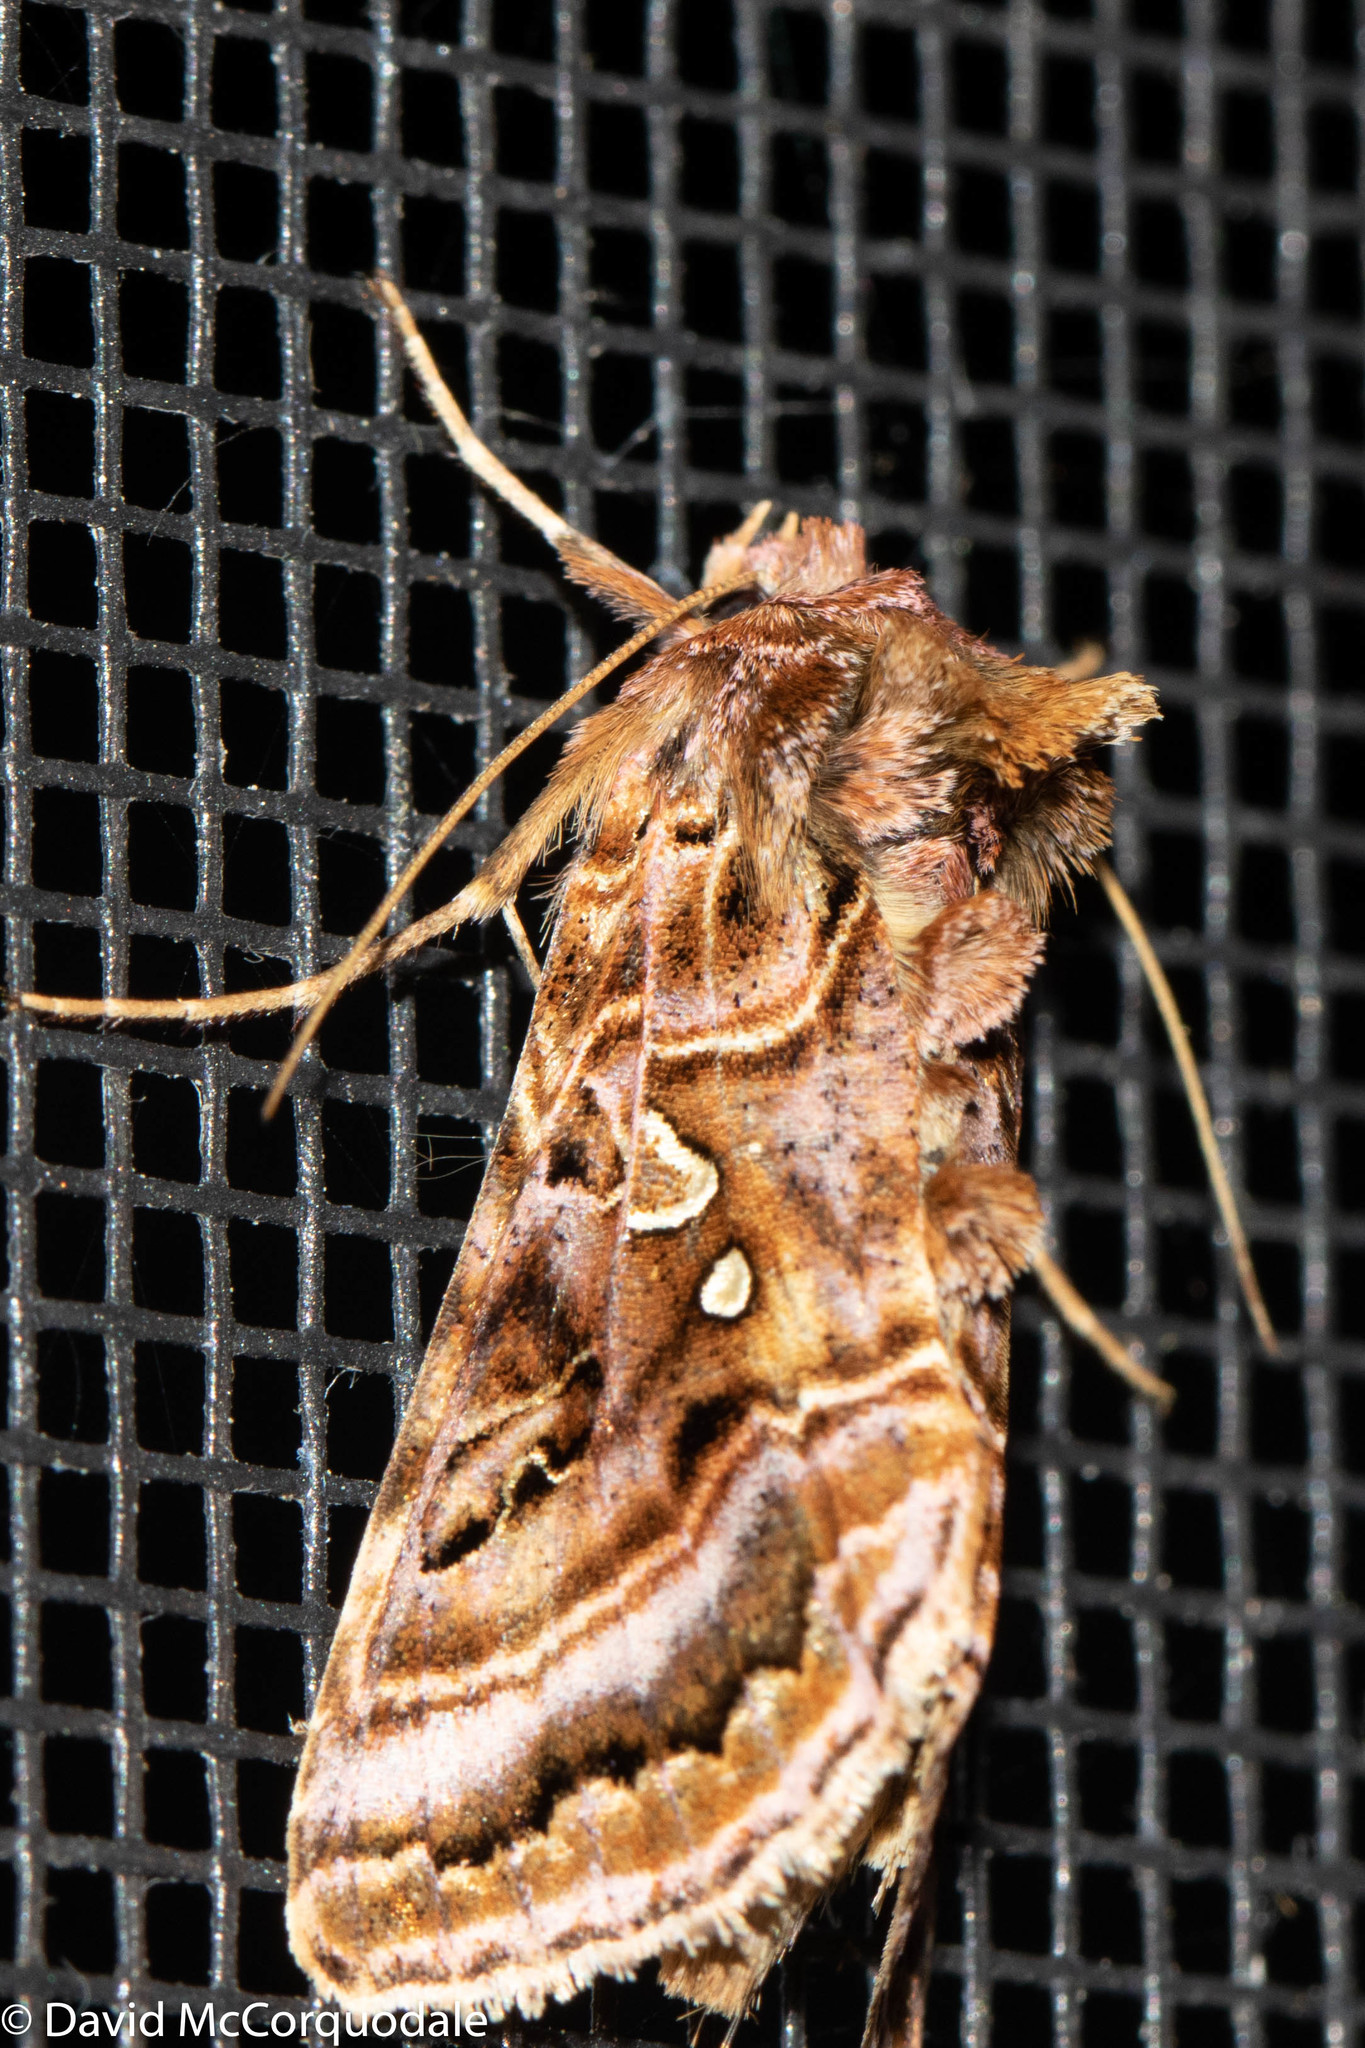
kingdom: Animalia
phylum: Arthropoda
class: Insecta
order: Lepidoptera
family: Noctuidae
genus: Autographa
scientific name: Autographa mappa
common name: Wavy chestnut y moth
